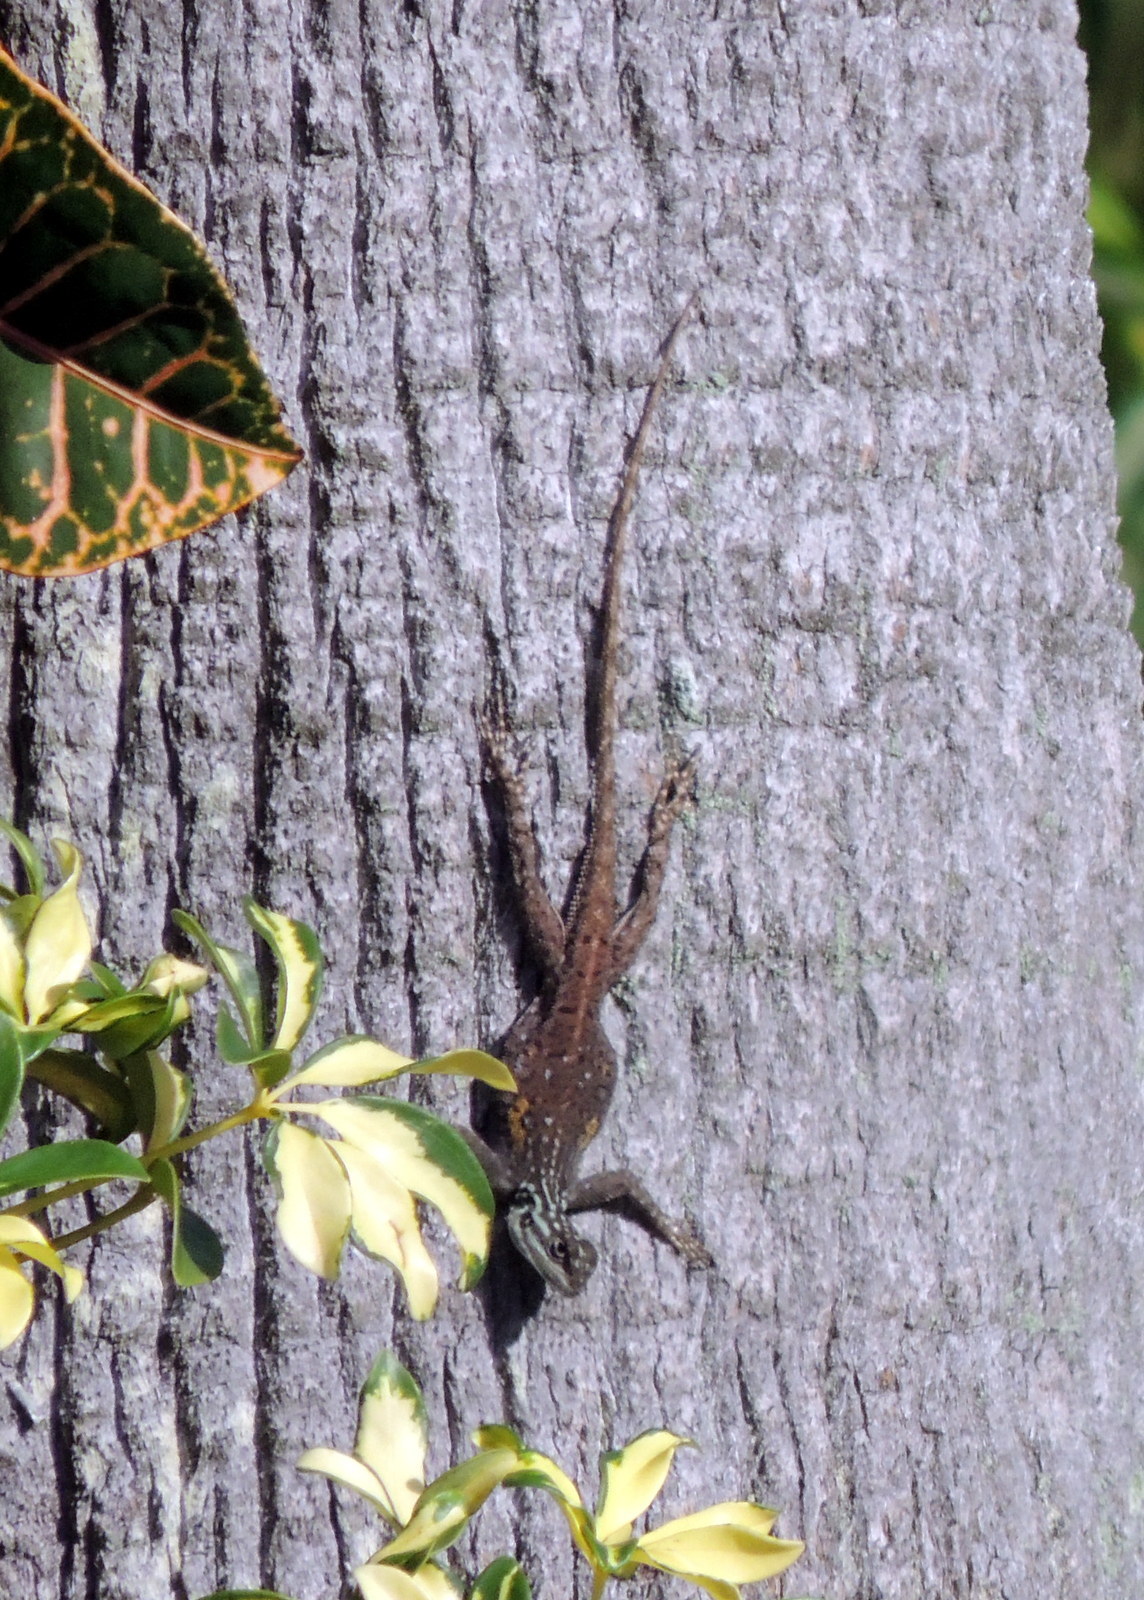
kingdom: Animalia
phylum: Chordata
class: Squamata
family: Agamidae
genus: Agama
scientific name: Agama picticauda
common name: Red-headed agama
